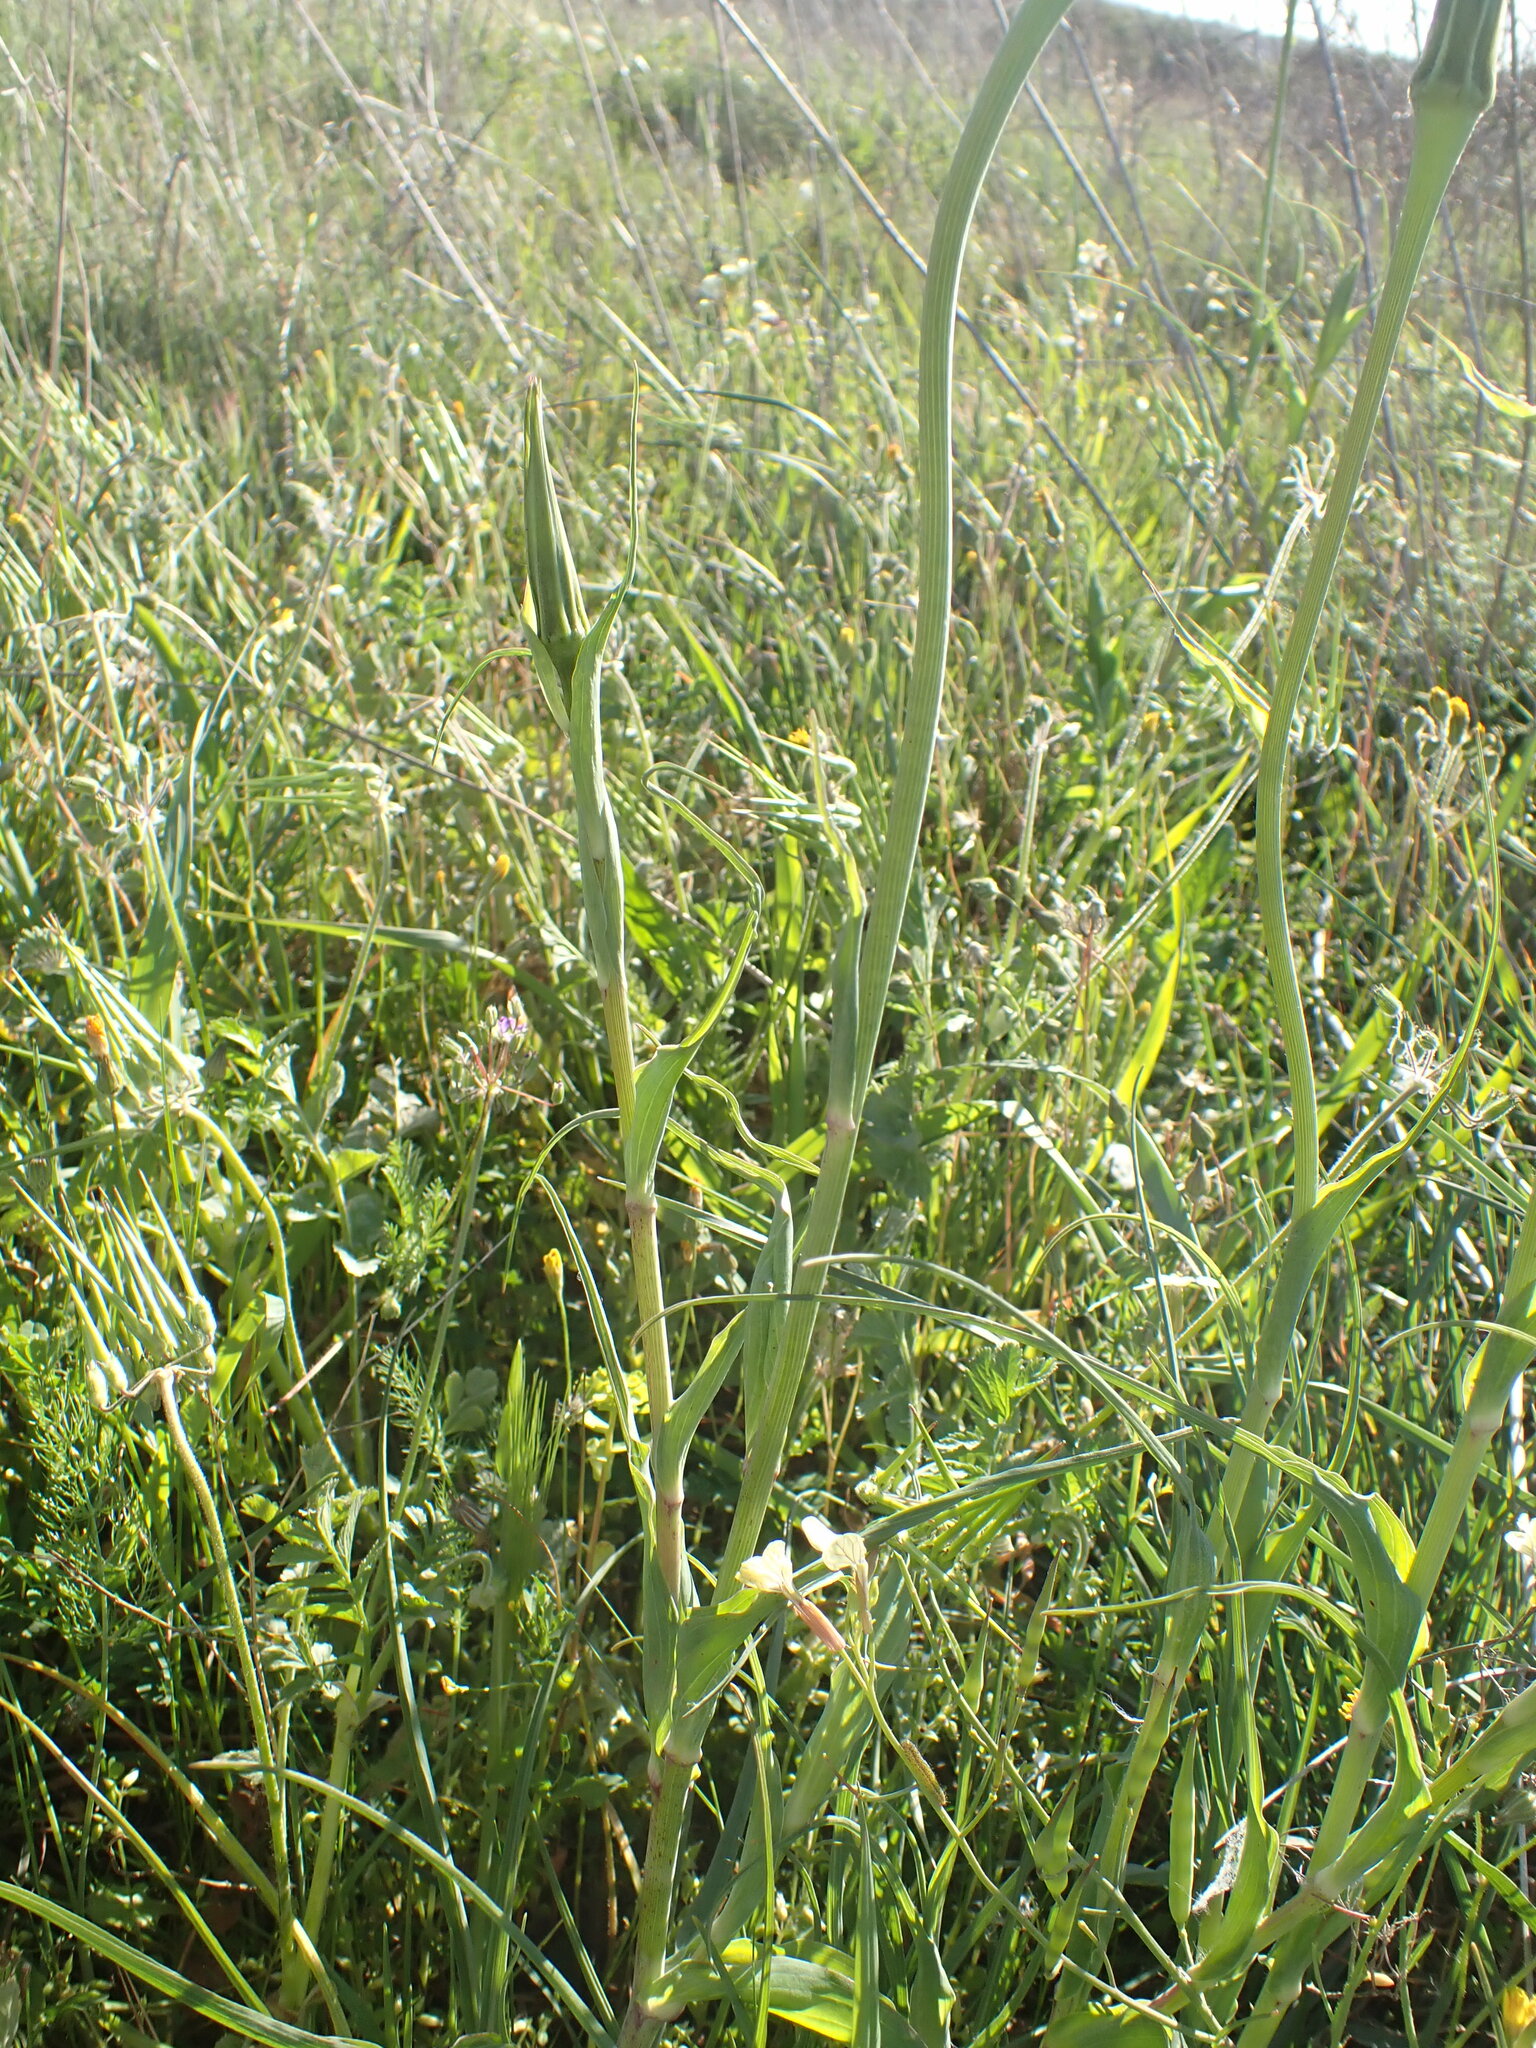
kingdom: Plantae
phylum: Tracheophyta
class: Magnoliopsida
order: Asterales
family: Asteraceae
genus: Tragopogon
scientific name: Tragopogon porrifolius
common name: Salsify
